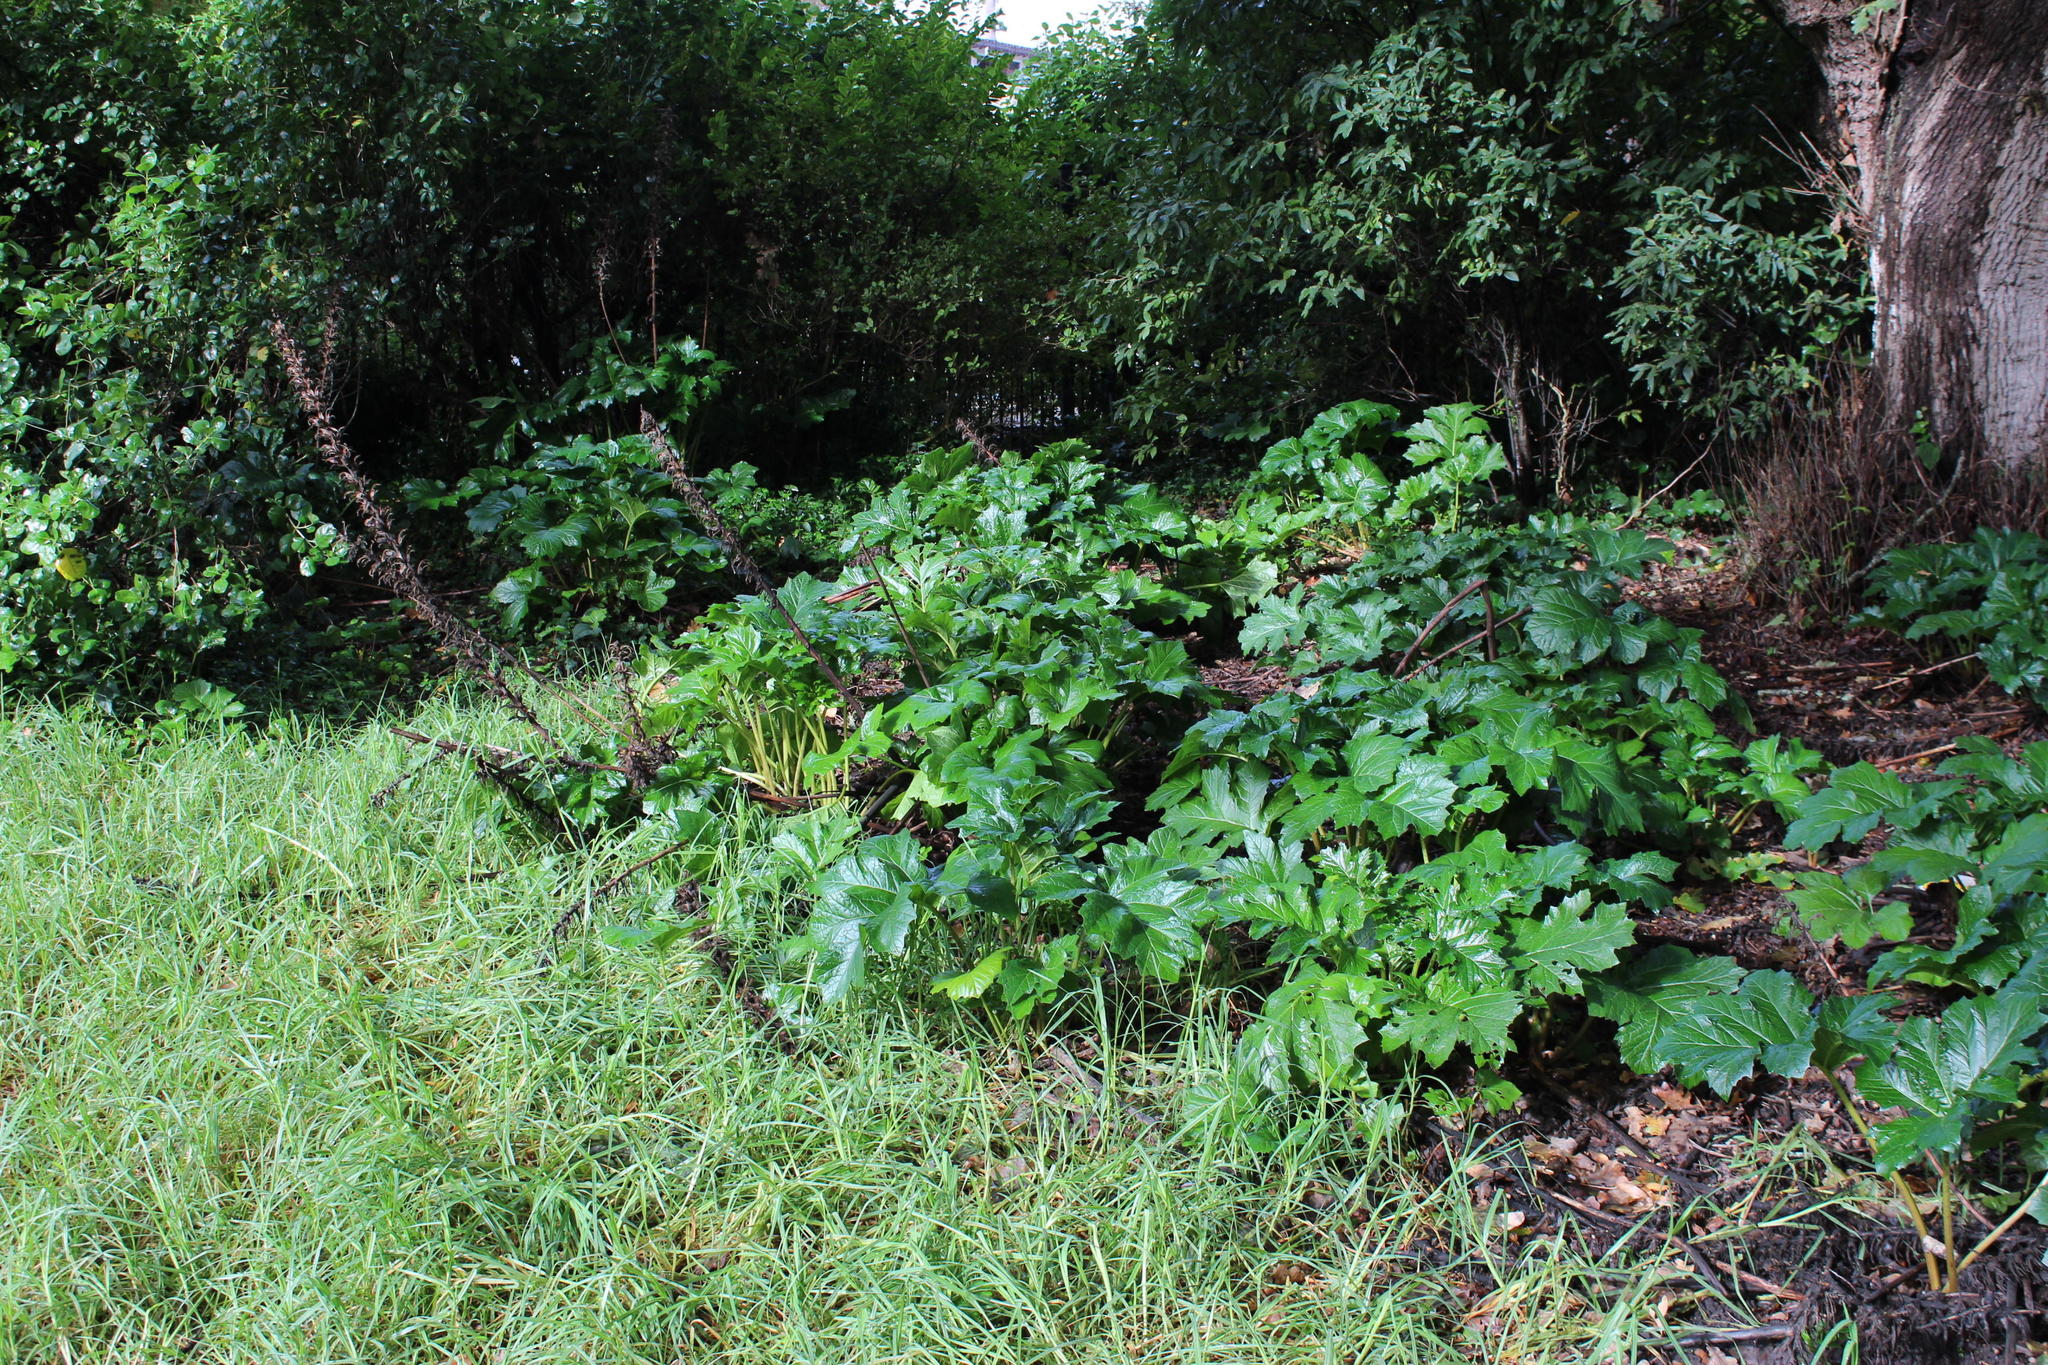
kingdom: Plantae
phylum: Tracheophyta
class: Magnoliopsida
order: Lamiales
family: Acanthaceae
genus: Acanthus
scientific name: Acanthus mollis
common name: Bear's-breech
